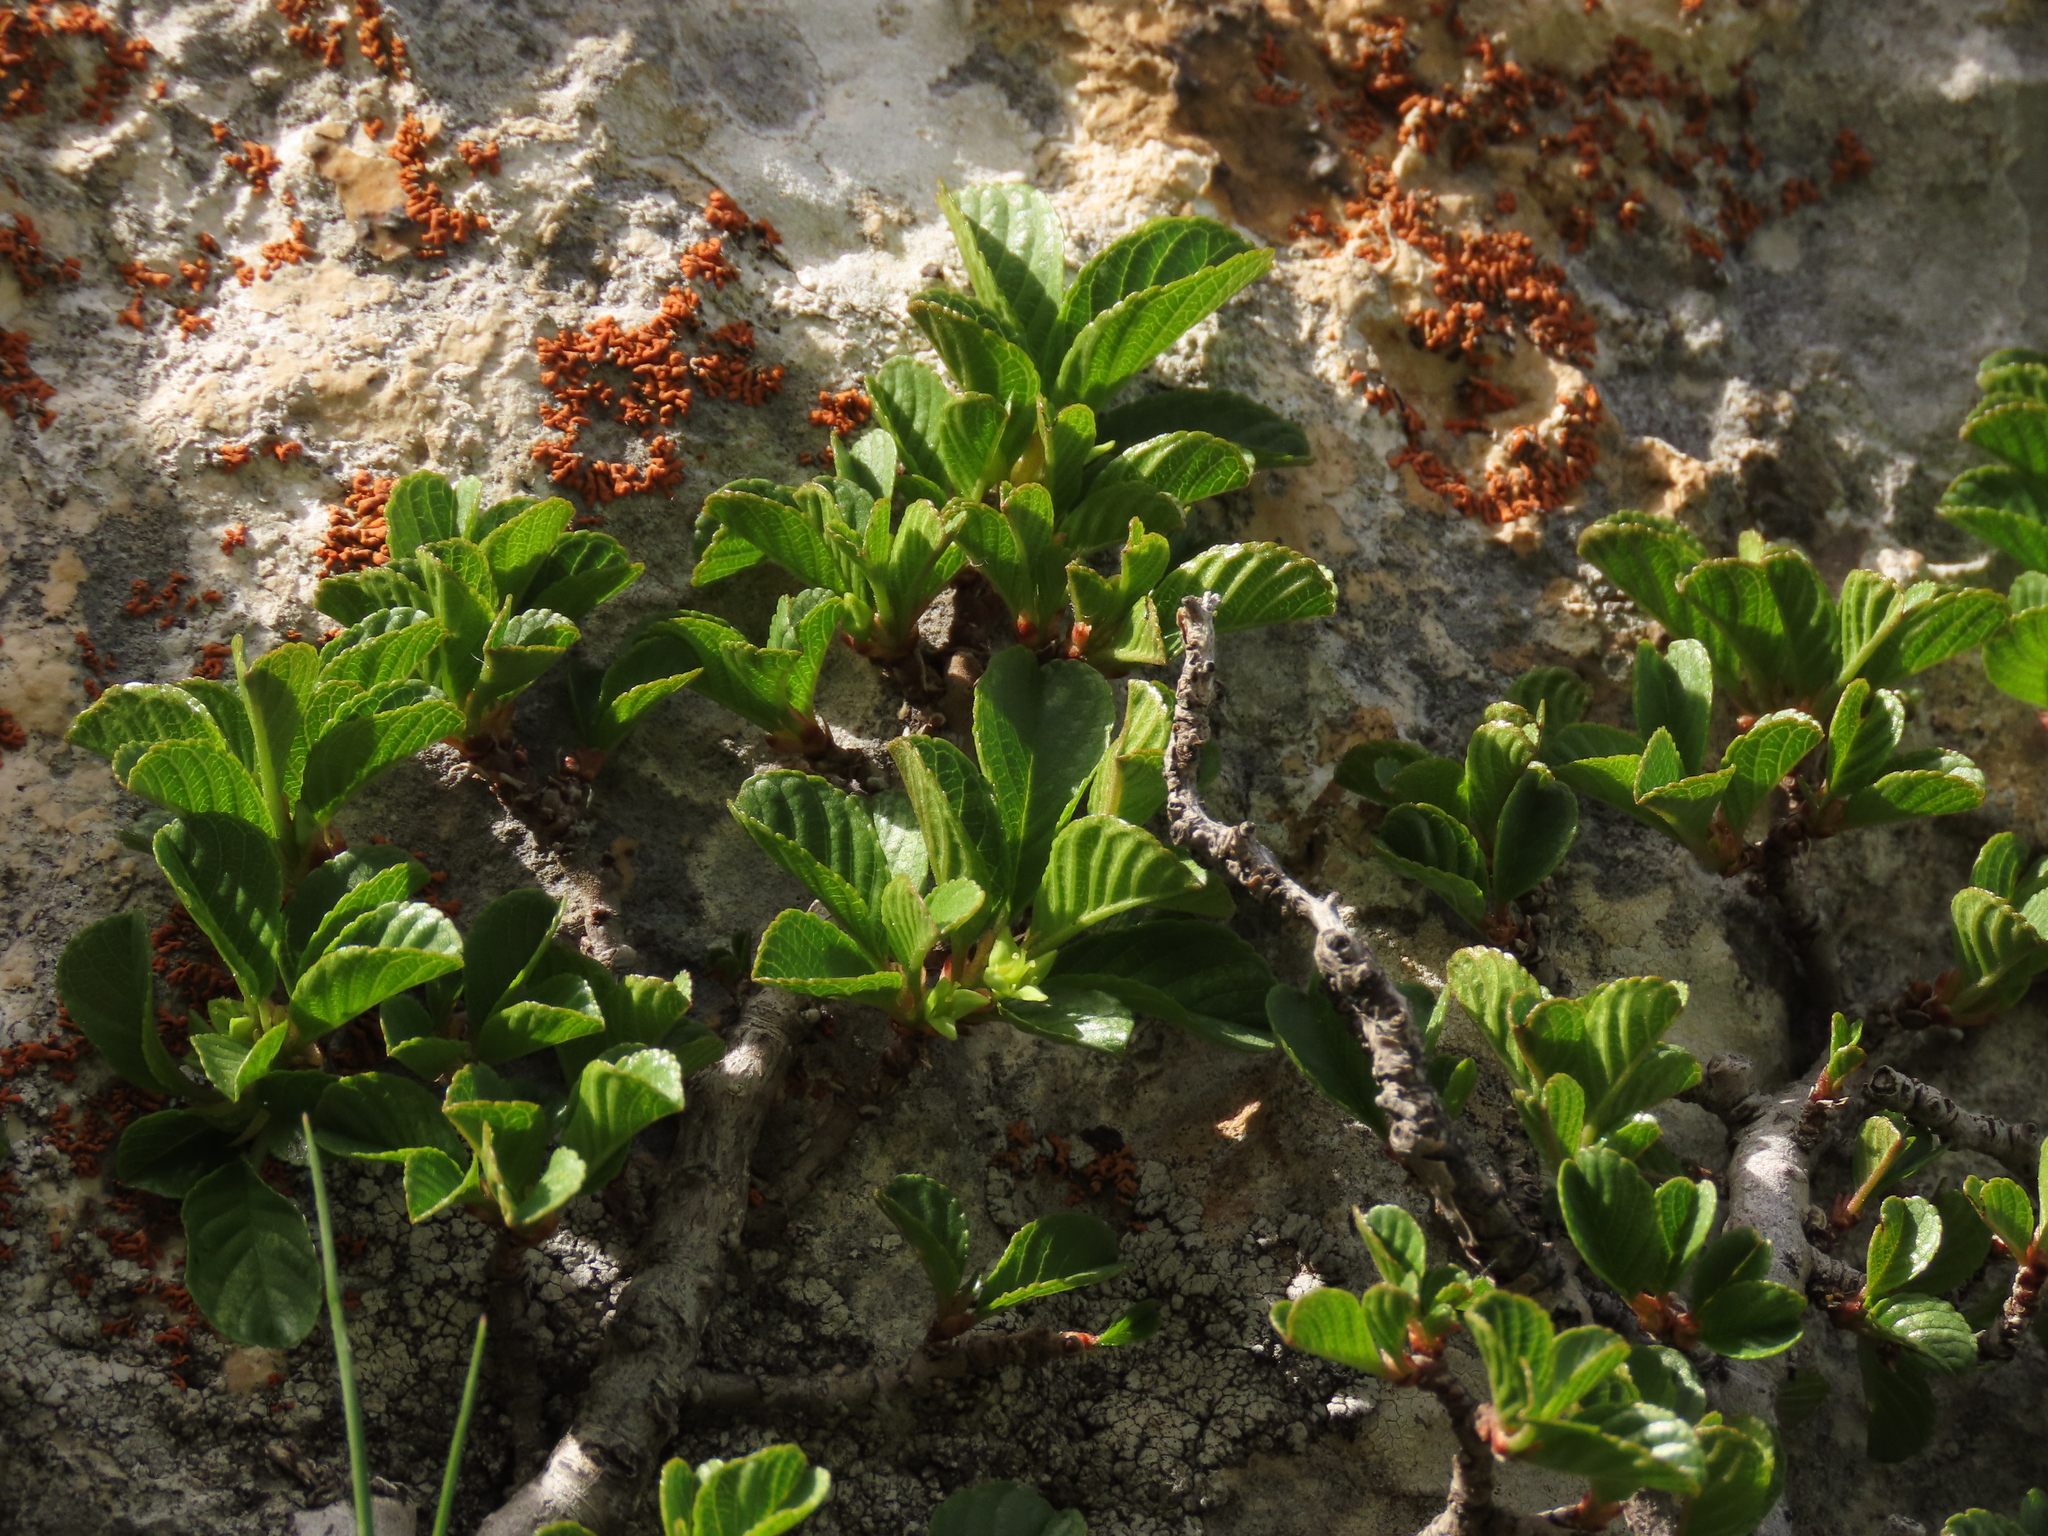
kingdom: Plantae
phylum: Tracheophyta
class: Magnoliopsida
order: Rosales
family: Rhamnaceae
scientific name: Rhamnaceae
